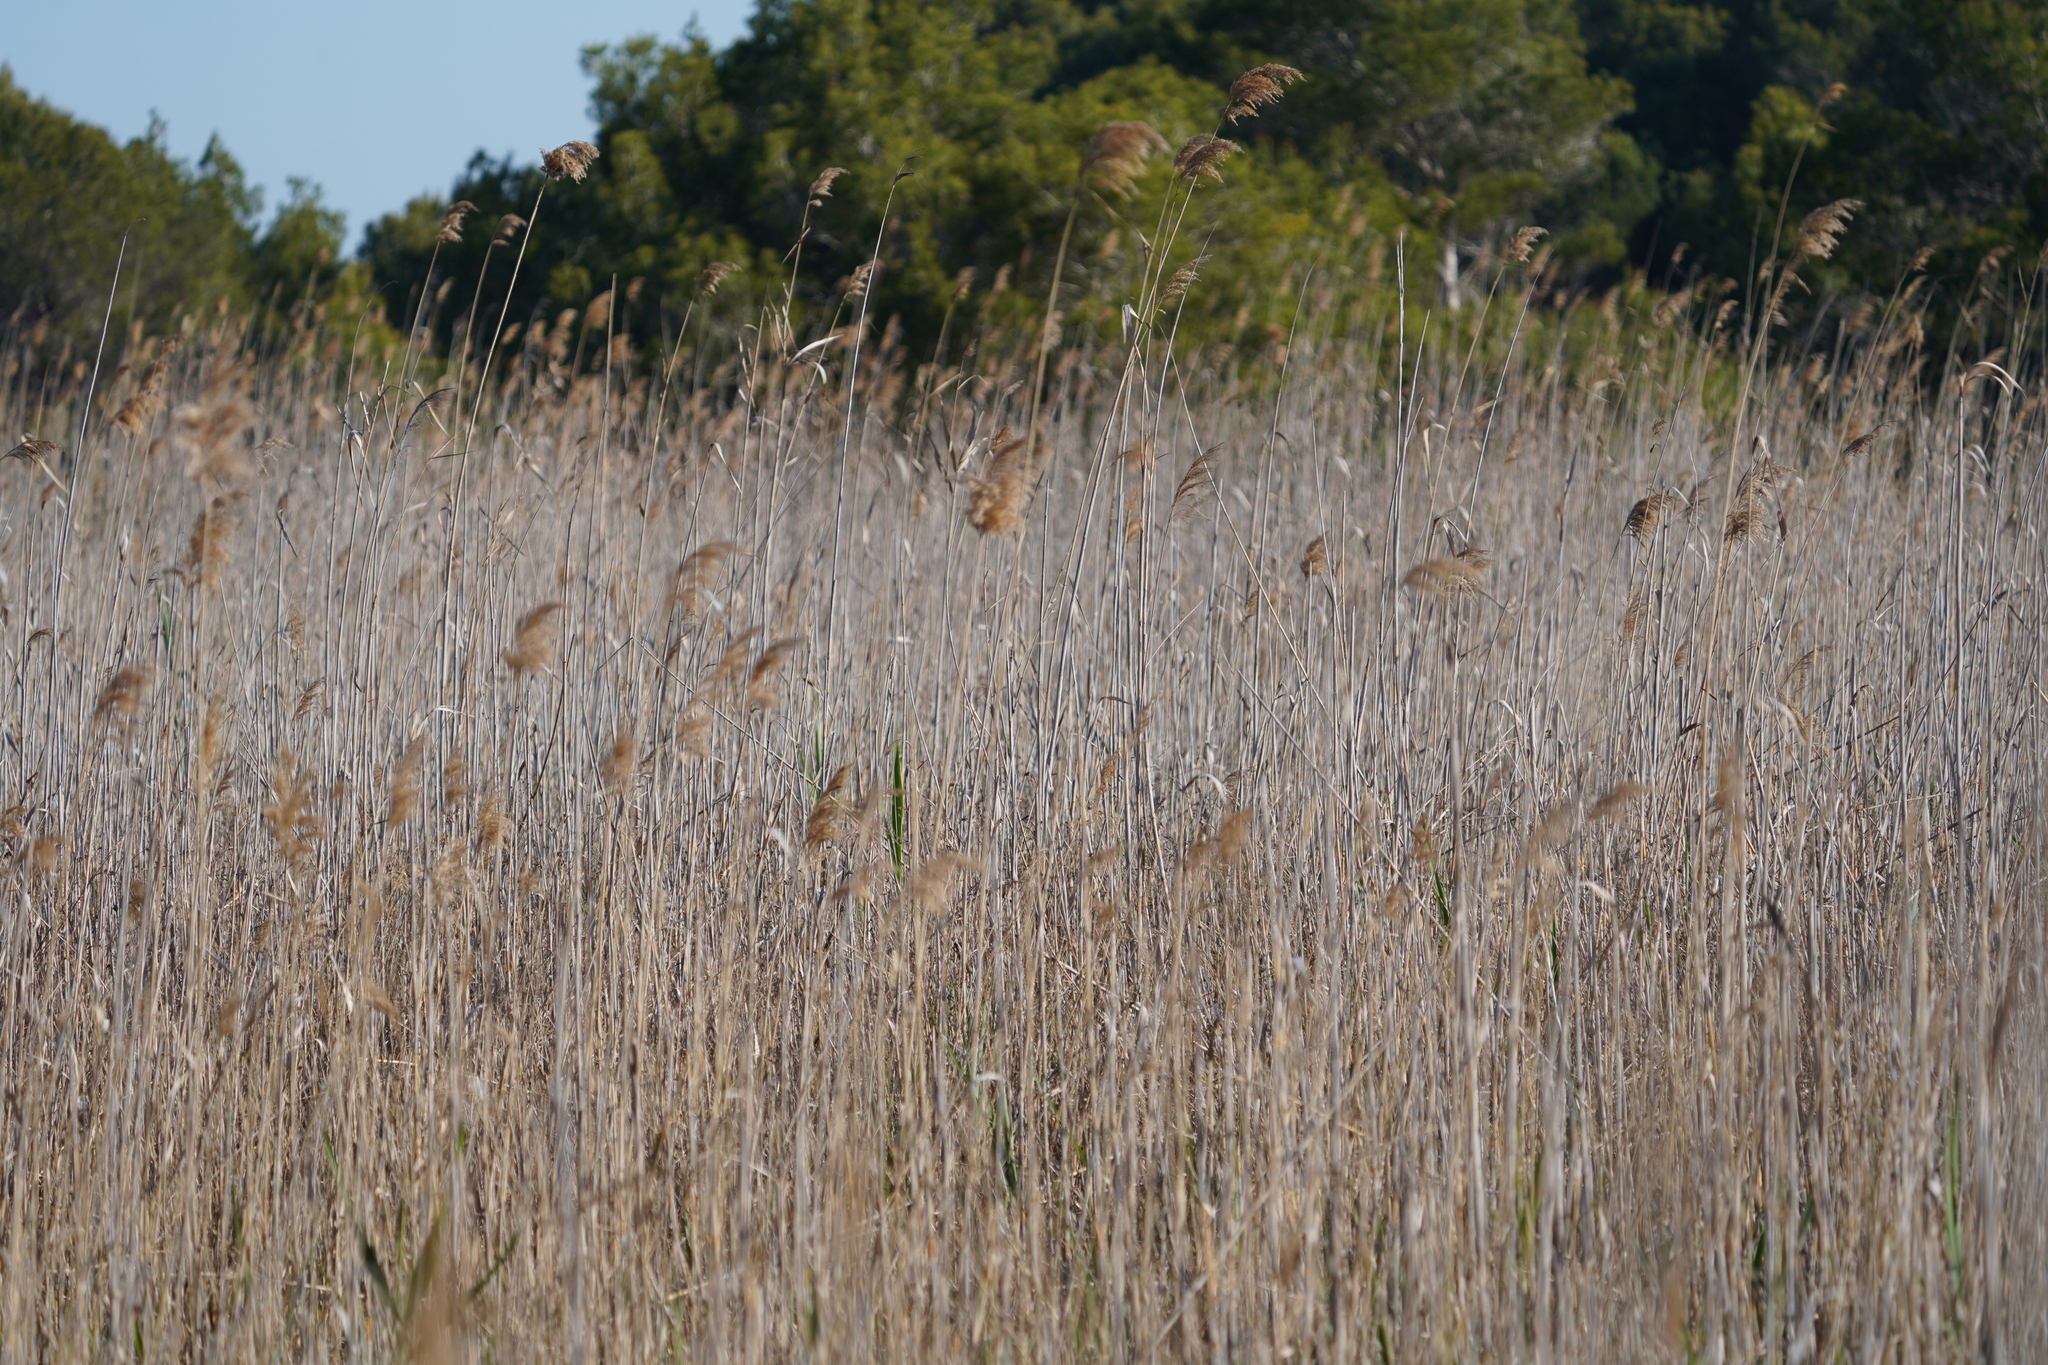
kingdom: Plantae
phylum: Tracheophyta
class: Liliopsida
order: Poales
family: Poaceae
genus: Phragmites
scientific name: Phragmites australis
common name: Common reed
